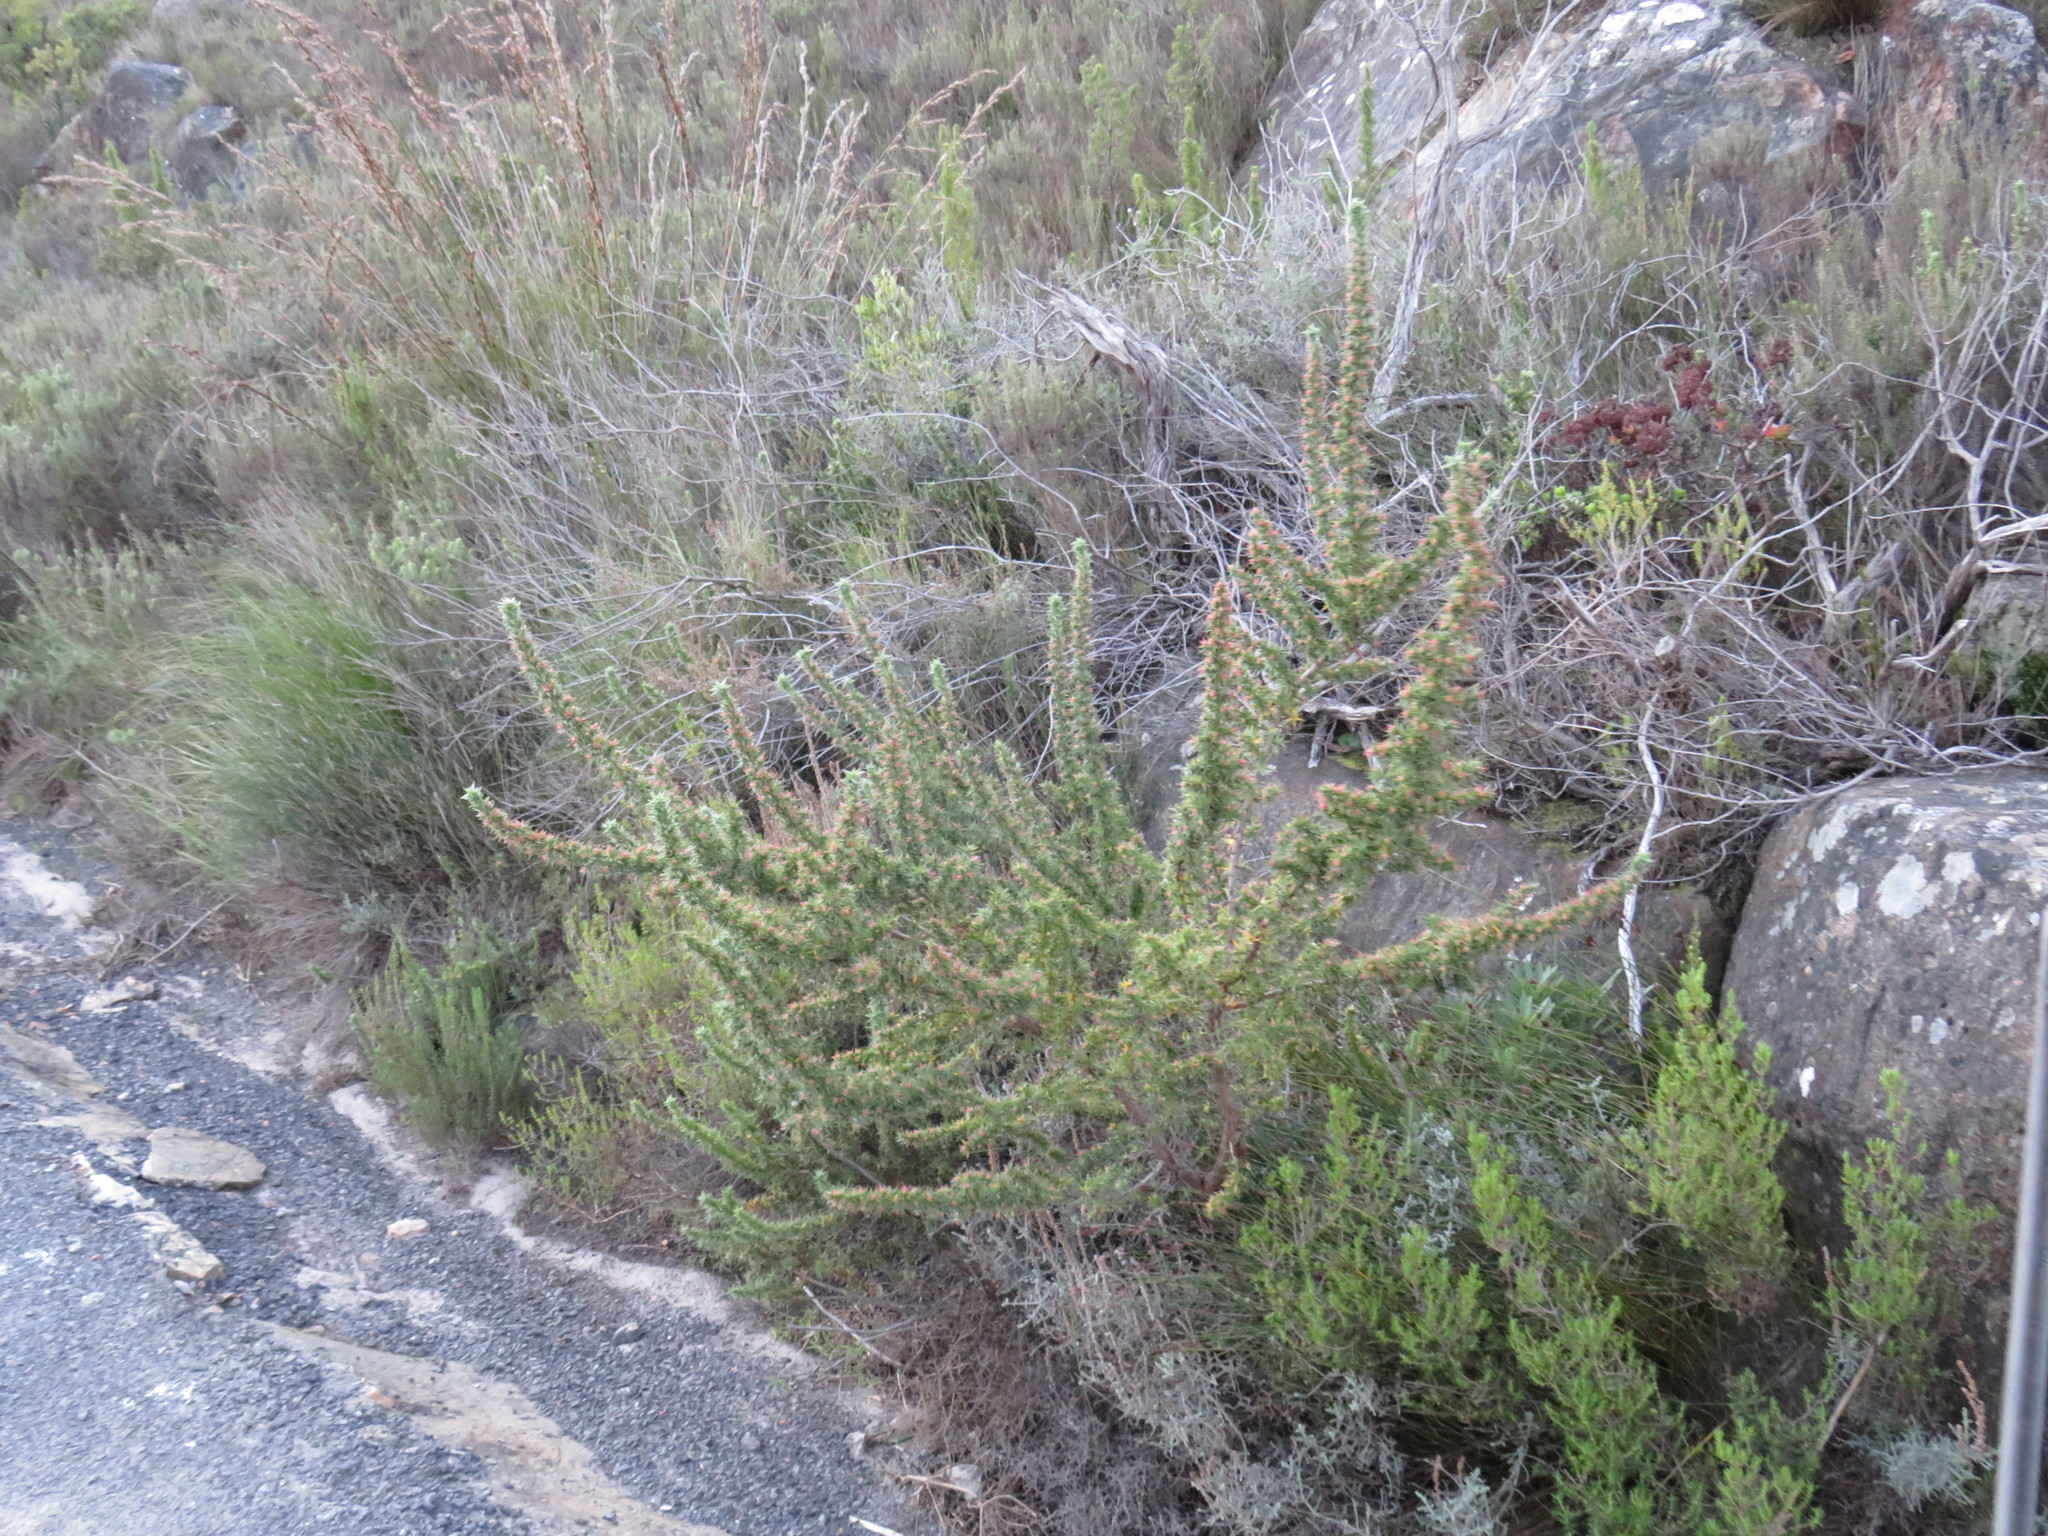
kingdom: Plantae
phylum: Tracheophyta
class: Magnoliopsida
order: Rosales
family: Rosaceae
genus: Cliffortia
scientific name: Cliffortia ruscifolia
